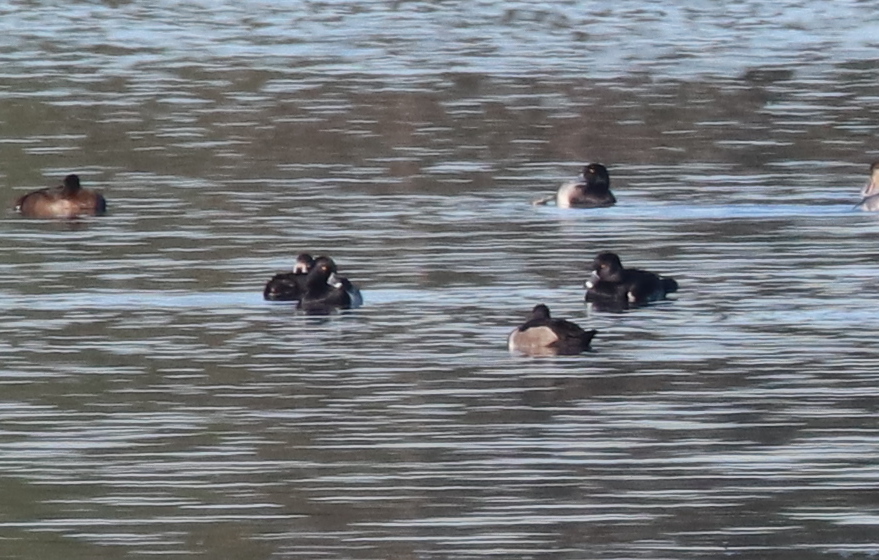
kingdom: Animalia
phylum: Chordata
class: Aves
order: Anseriformes
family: Anatidae
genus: Aythya
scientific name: Aythya collaris
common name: Ring-necked duck
